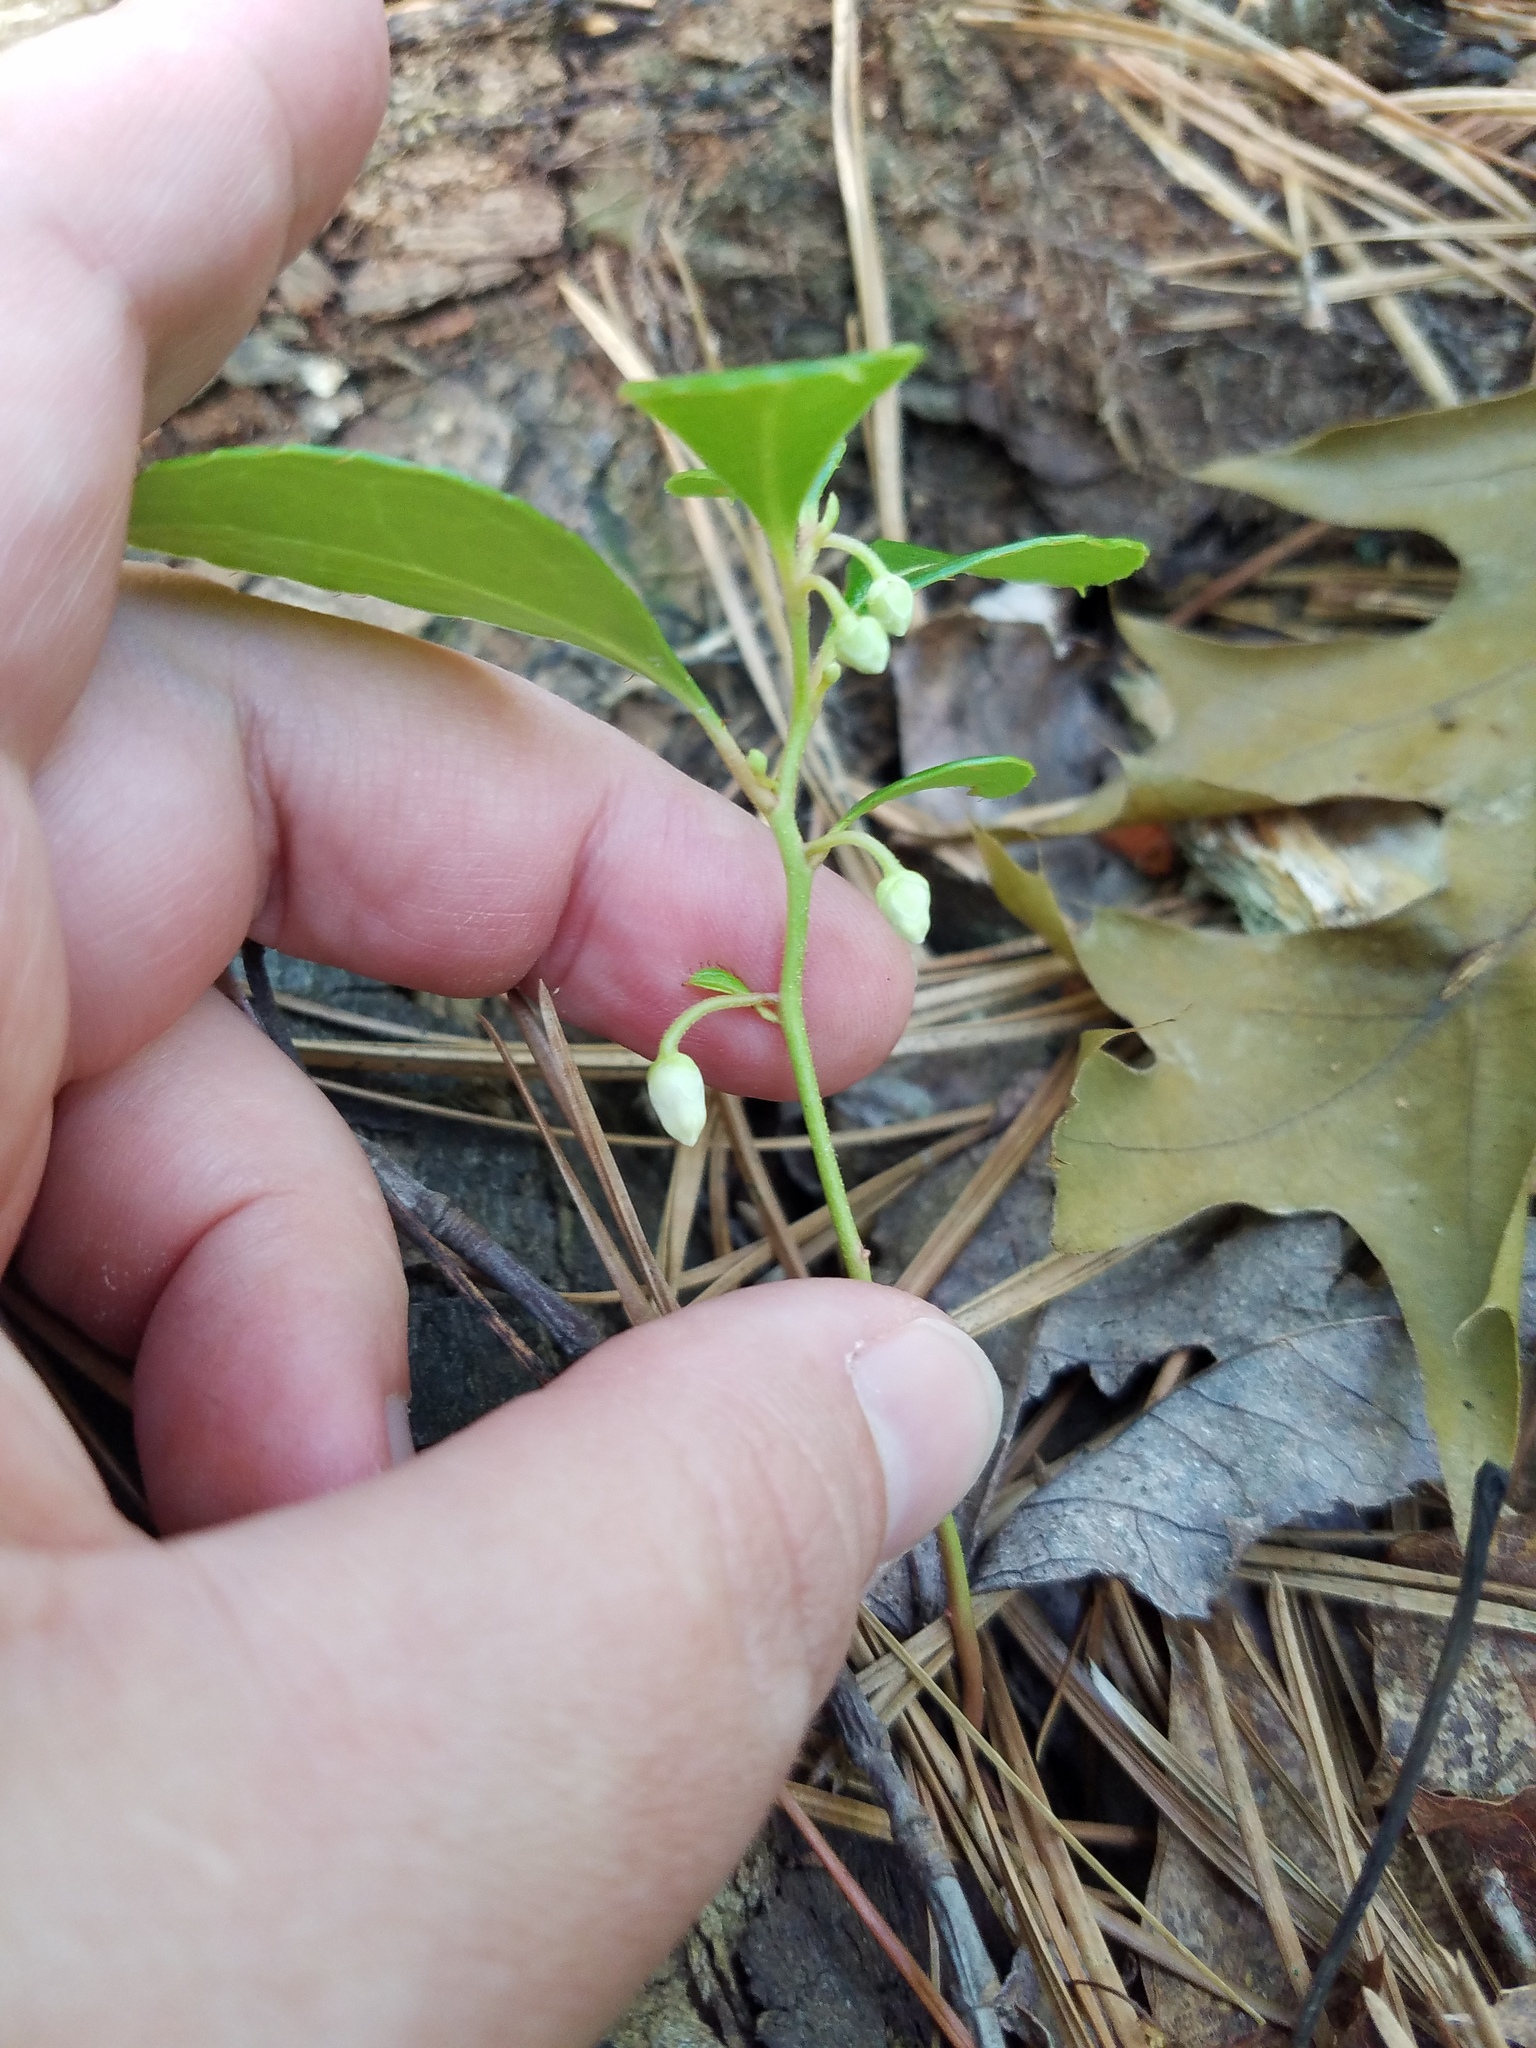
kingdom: Plantae
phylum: Tracheophyta
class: Magnoliopsida
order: Ericales
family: Ericaceae
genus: Gaultheria
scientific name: Gaultheria procumbens
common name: Checkerberry
